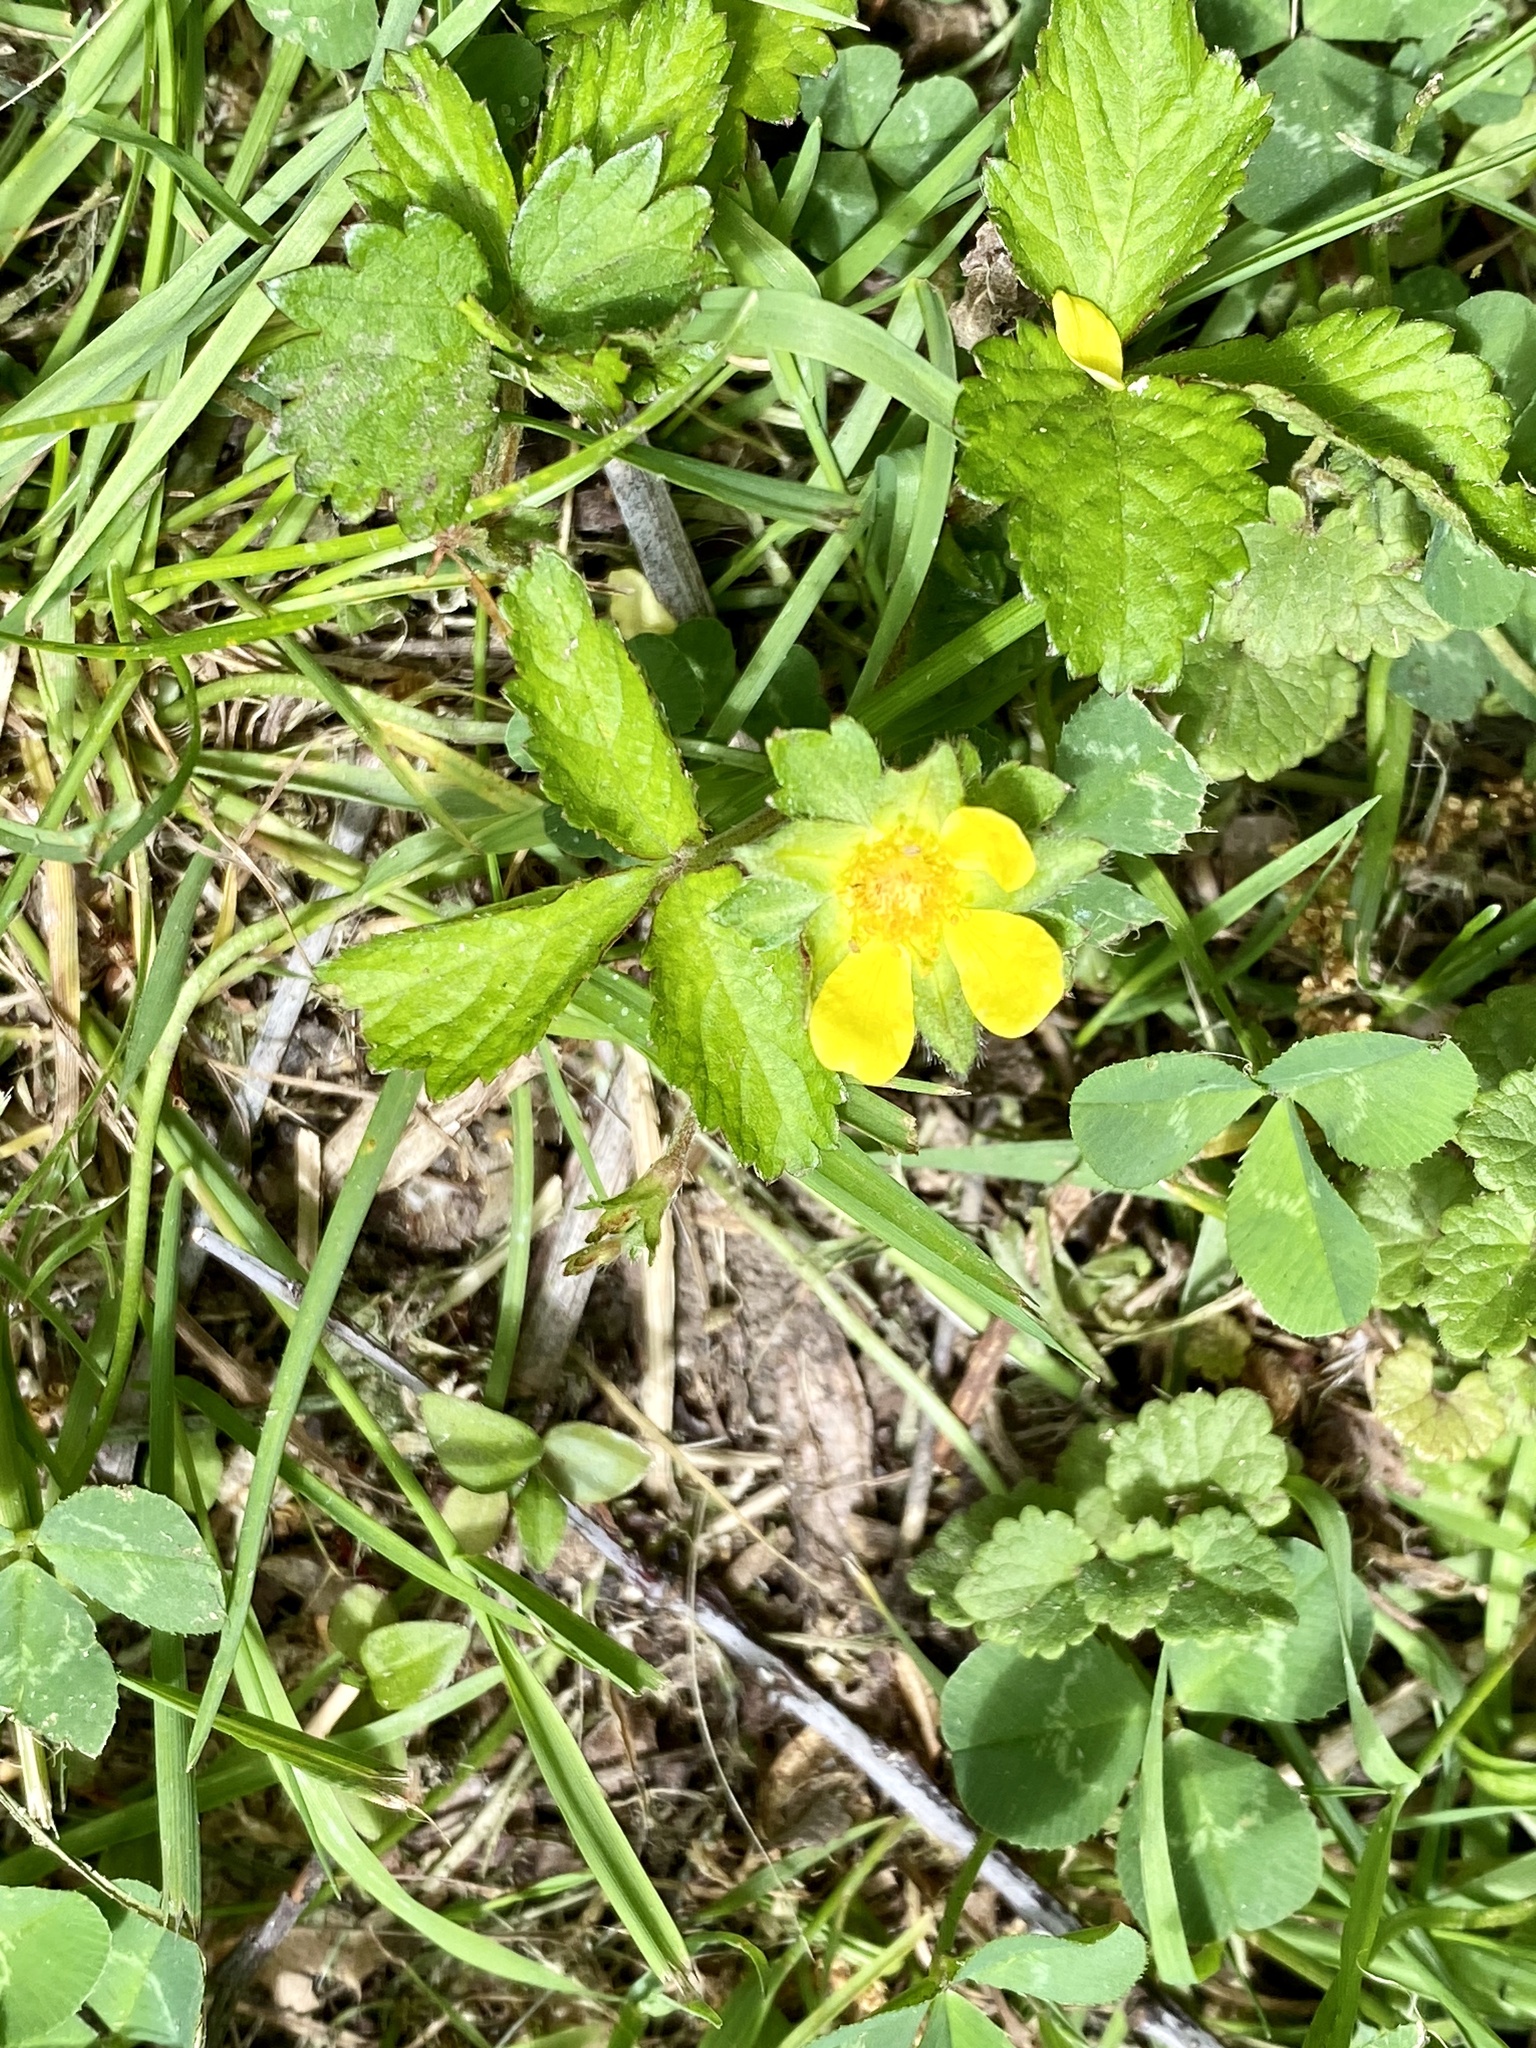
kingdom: Plantae
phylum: Tracheophyta
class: Magnoliopsida
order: Rosales
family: Rosaceae
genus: Potentilla
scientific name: Potentilla indica
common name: Yellow-flowered strawberry
